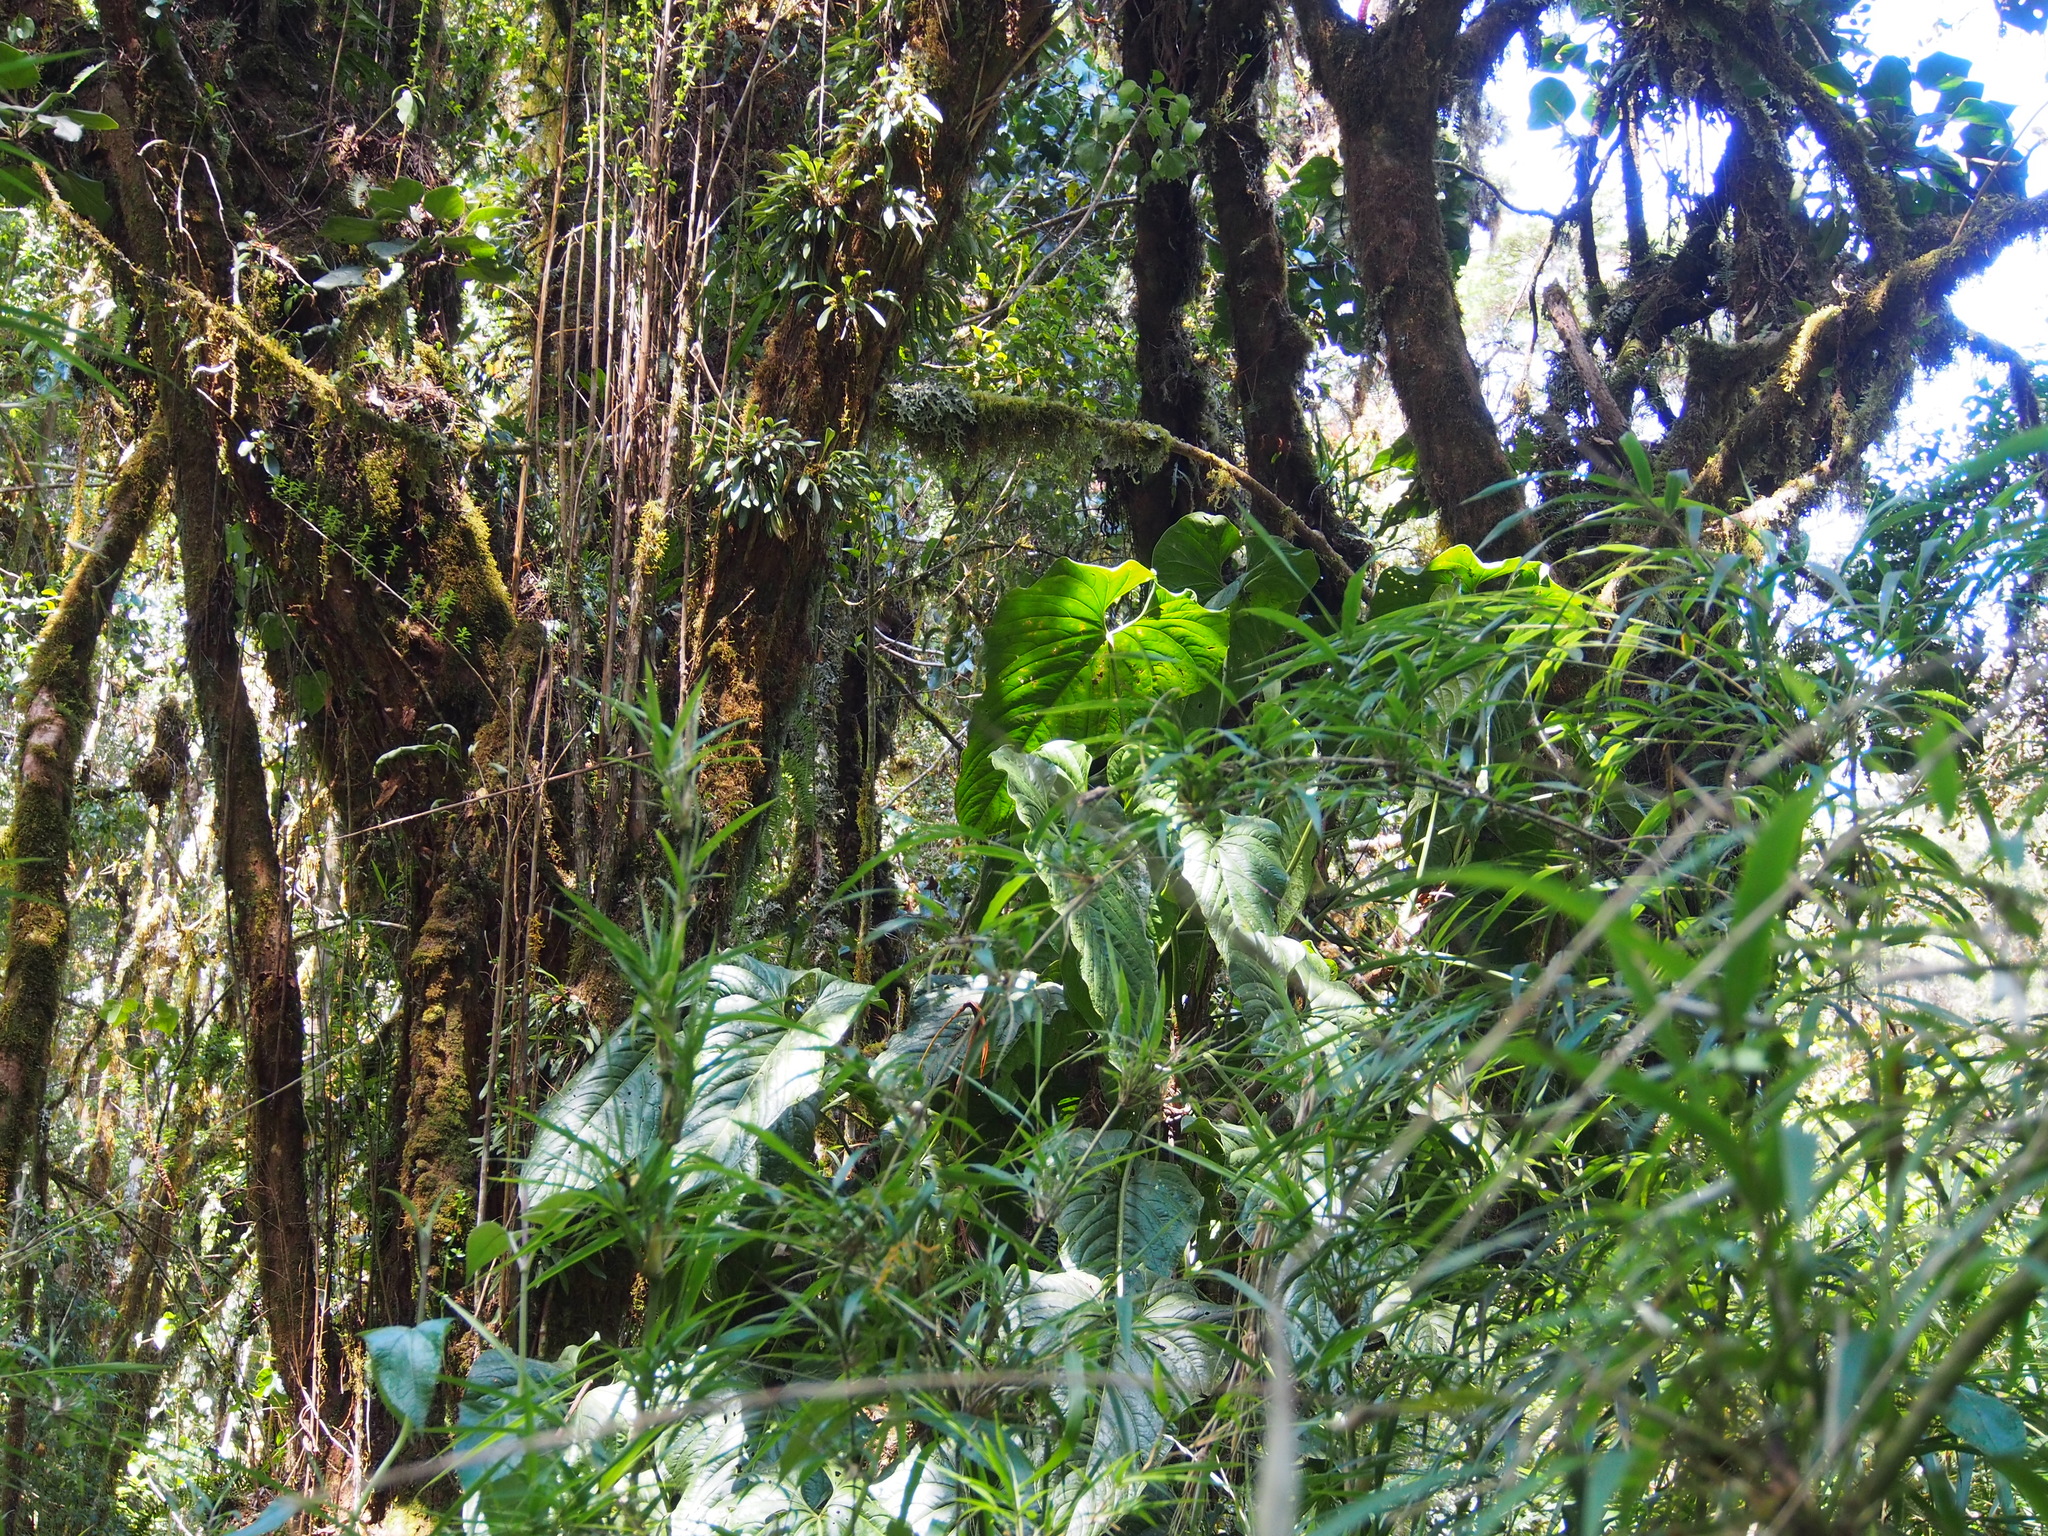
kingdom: Plantae
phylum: Tracheophyta
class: Liliopsida
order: Alismatales
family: Araceae
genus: Anthurium
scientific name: Anthurium concinnatum
